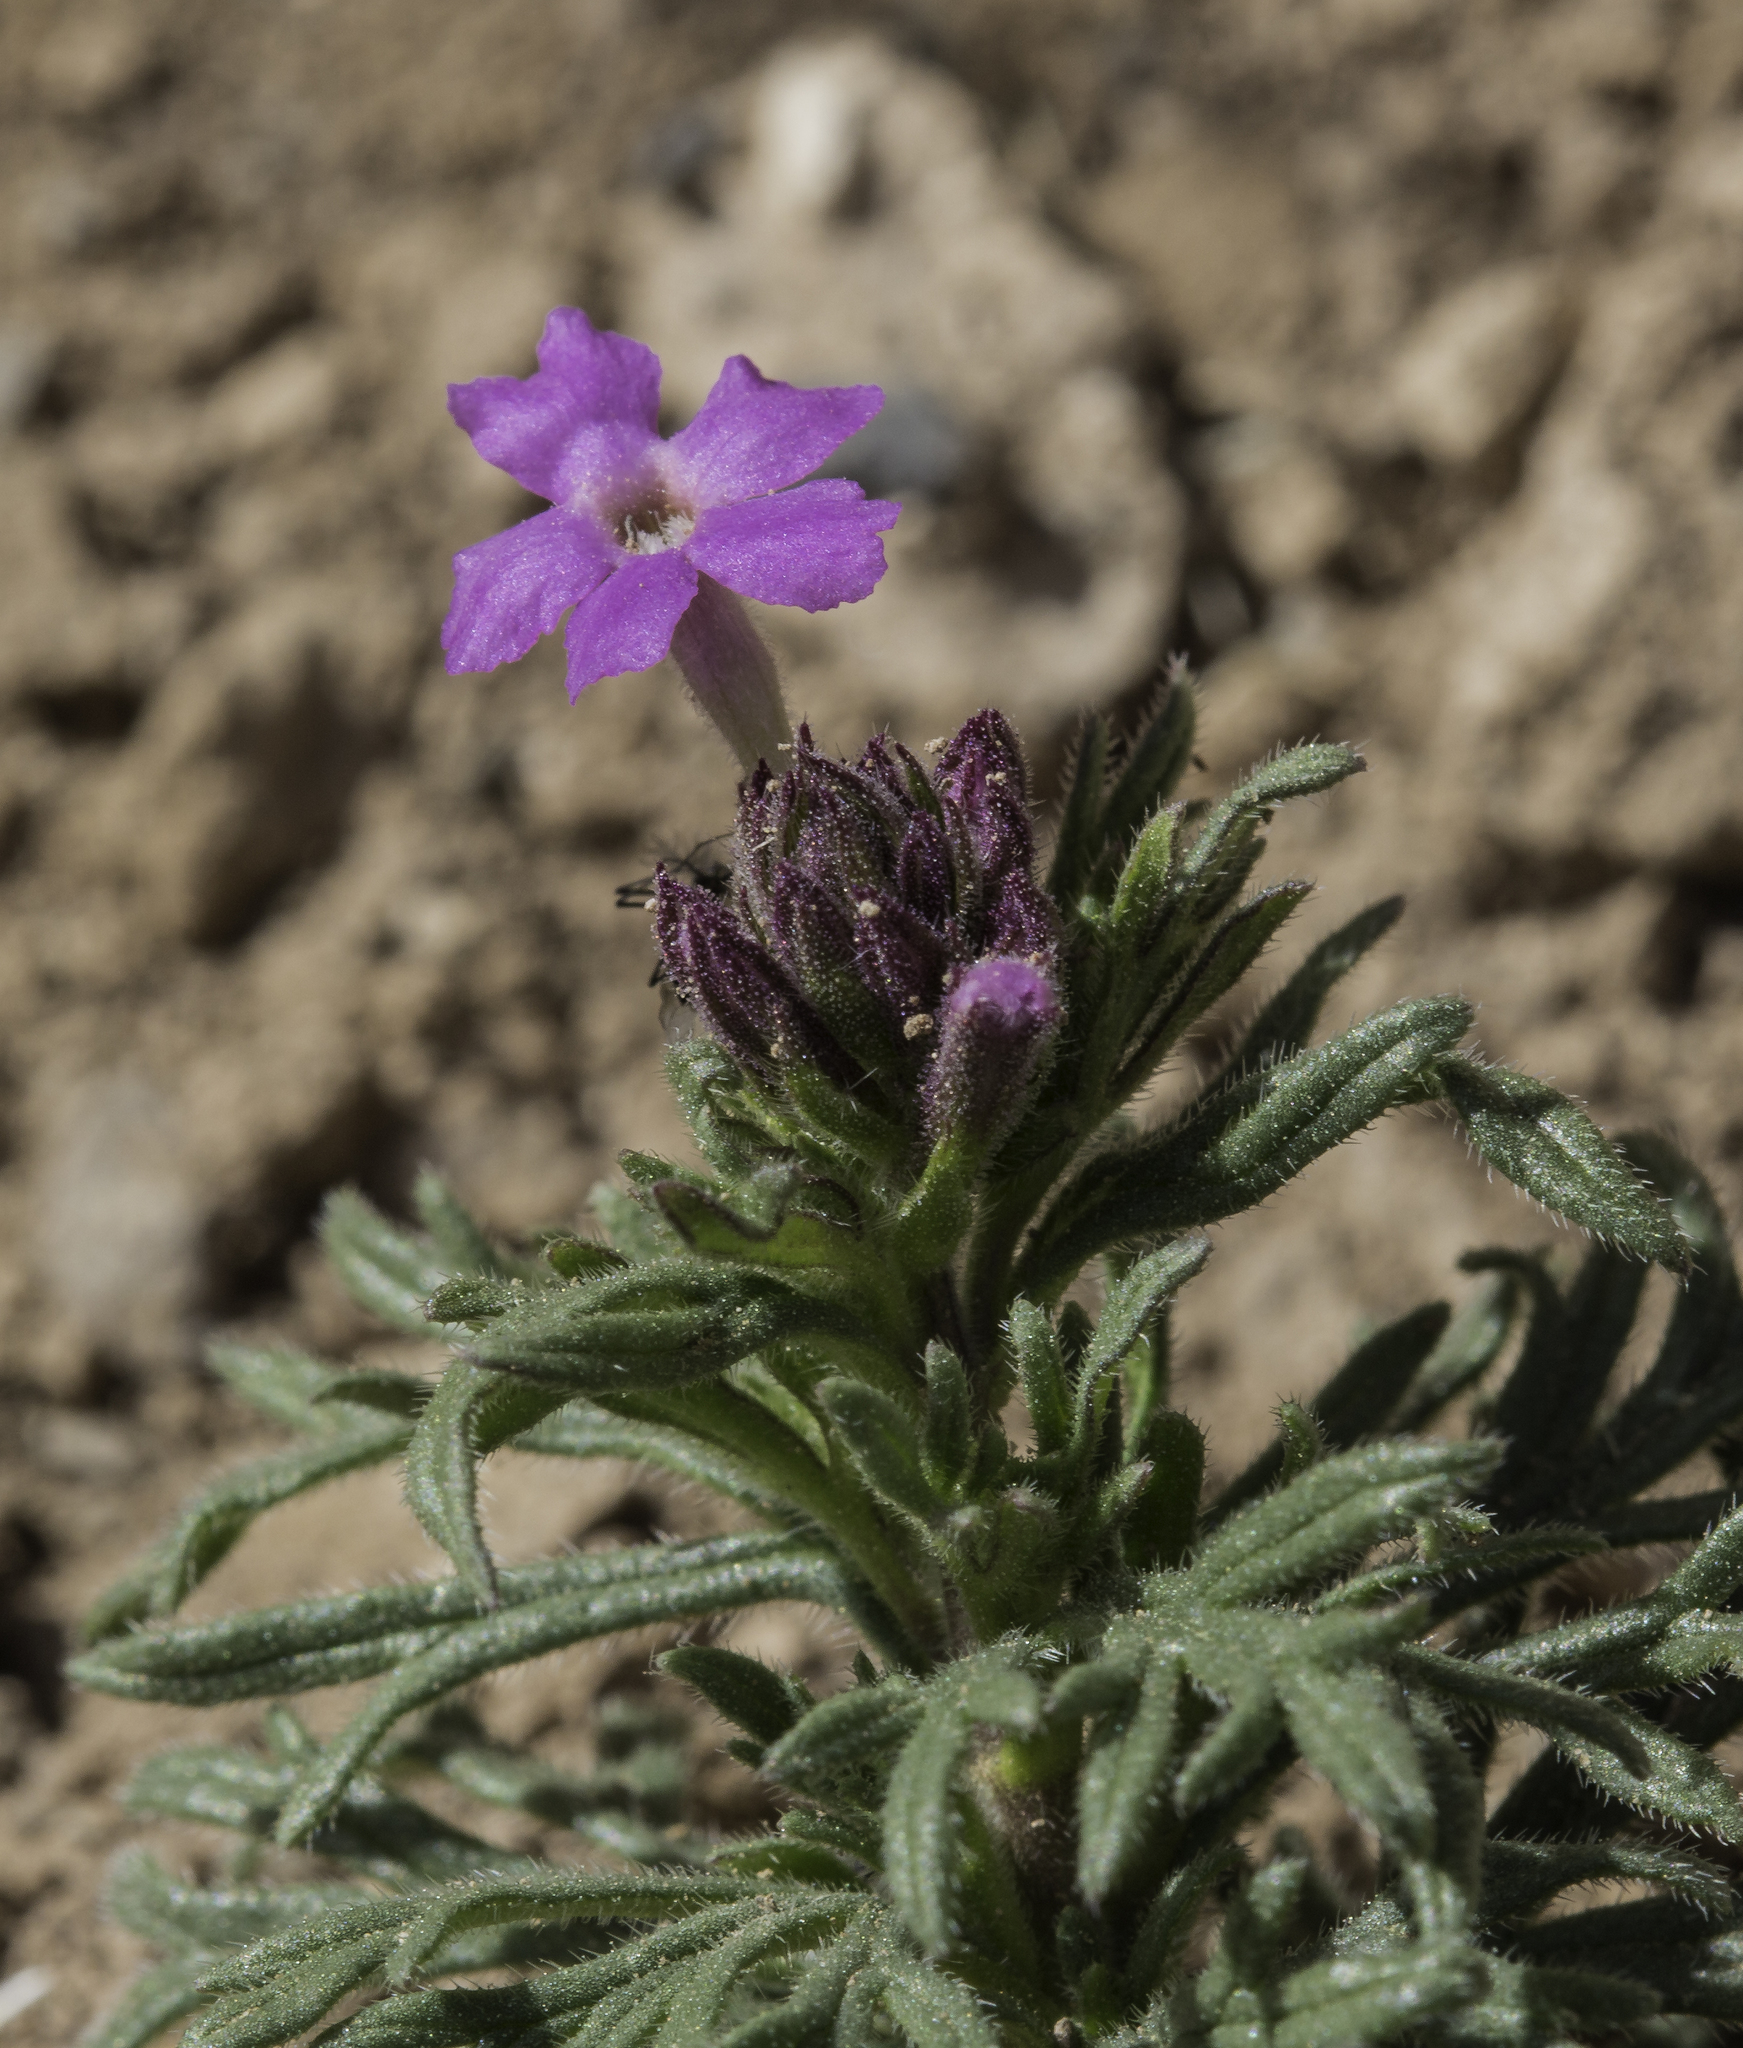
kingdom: Plantae
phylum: Tracheophyta
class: Magnoliopsida
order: Lamiales
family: Verbenaceae
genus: Verbena
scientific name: Verbena bipinnatifida
